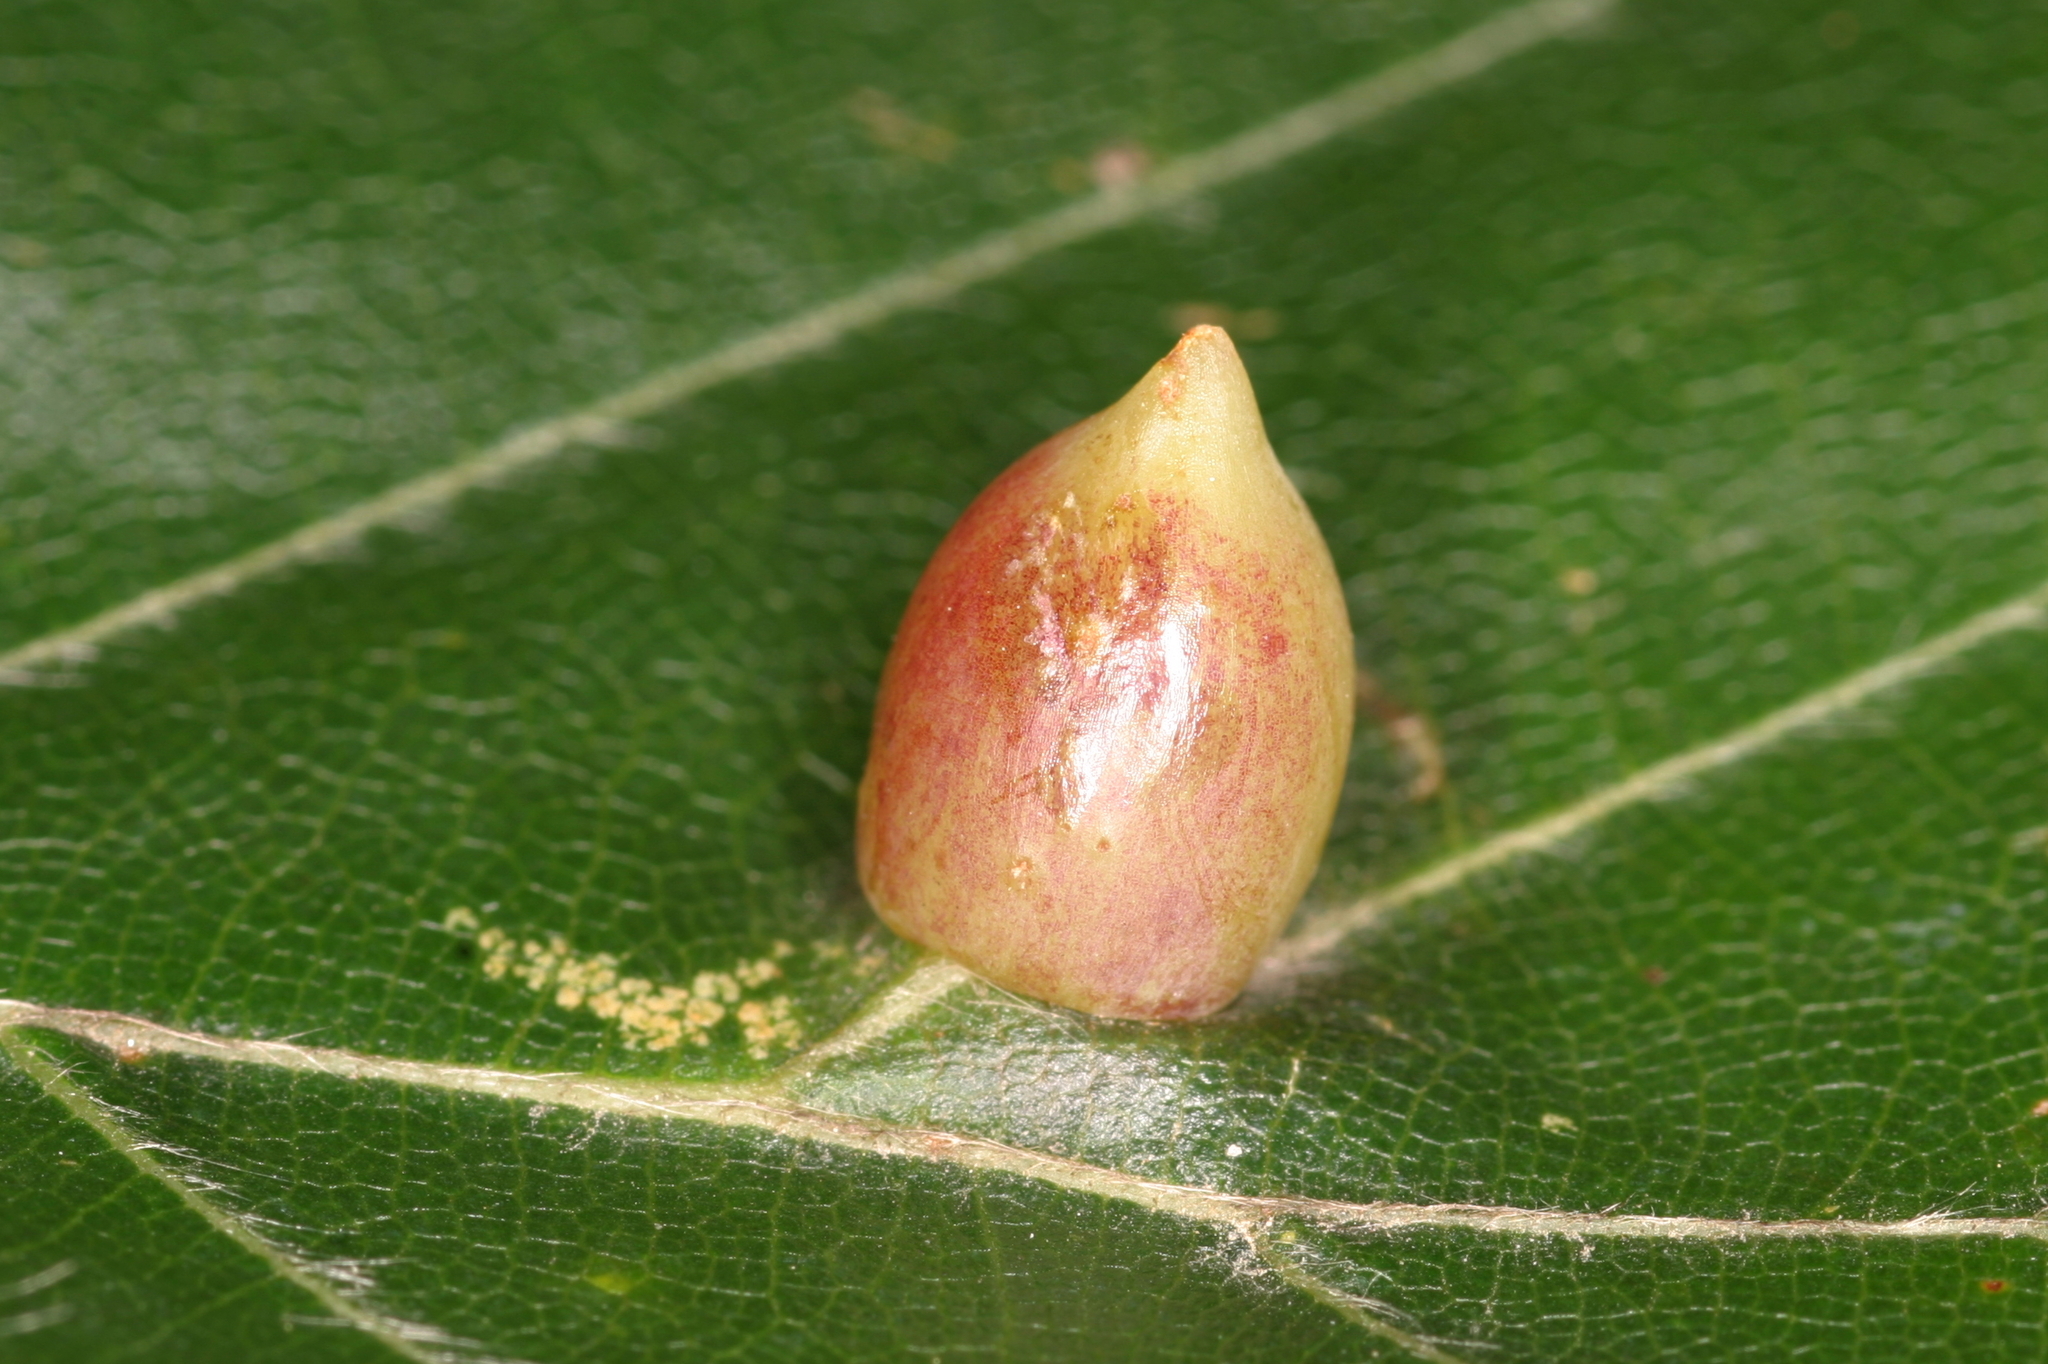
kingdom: Animalia
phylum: Arthropoda
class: Insecta
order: Diptera
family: Cecidomyiidae
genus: Mikiola
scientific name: Mikiola fagi
